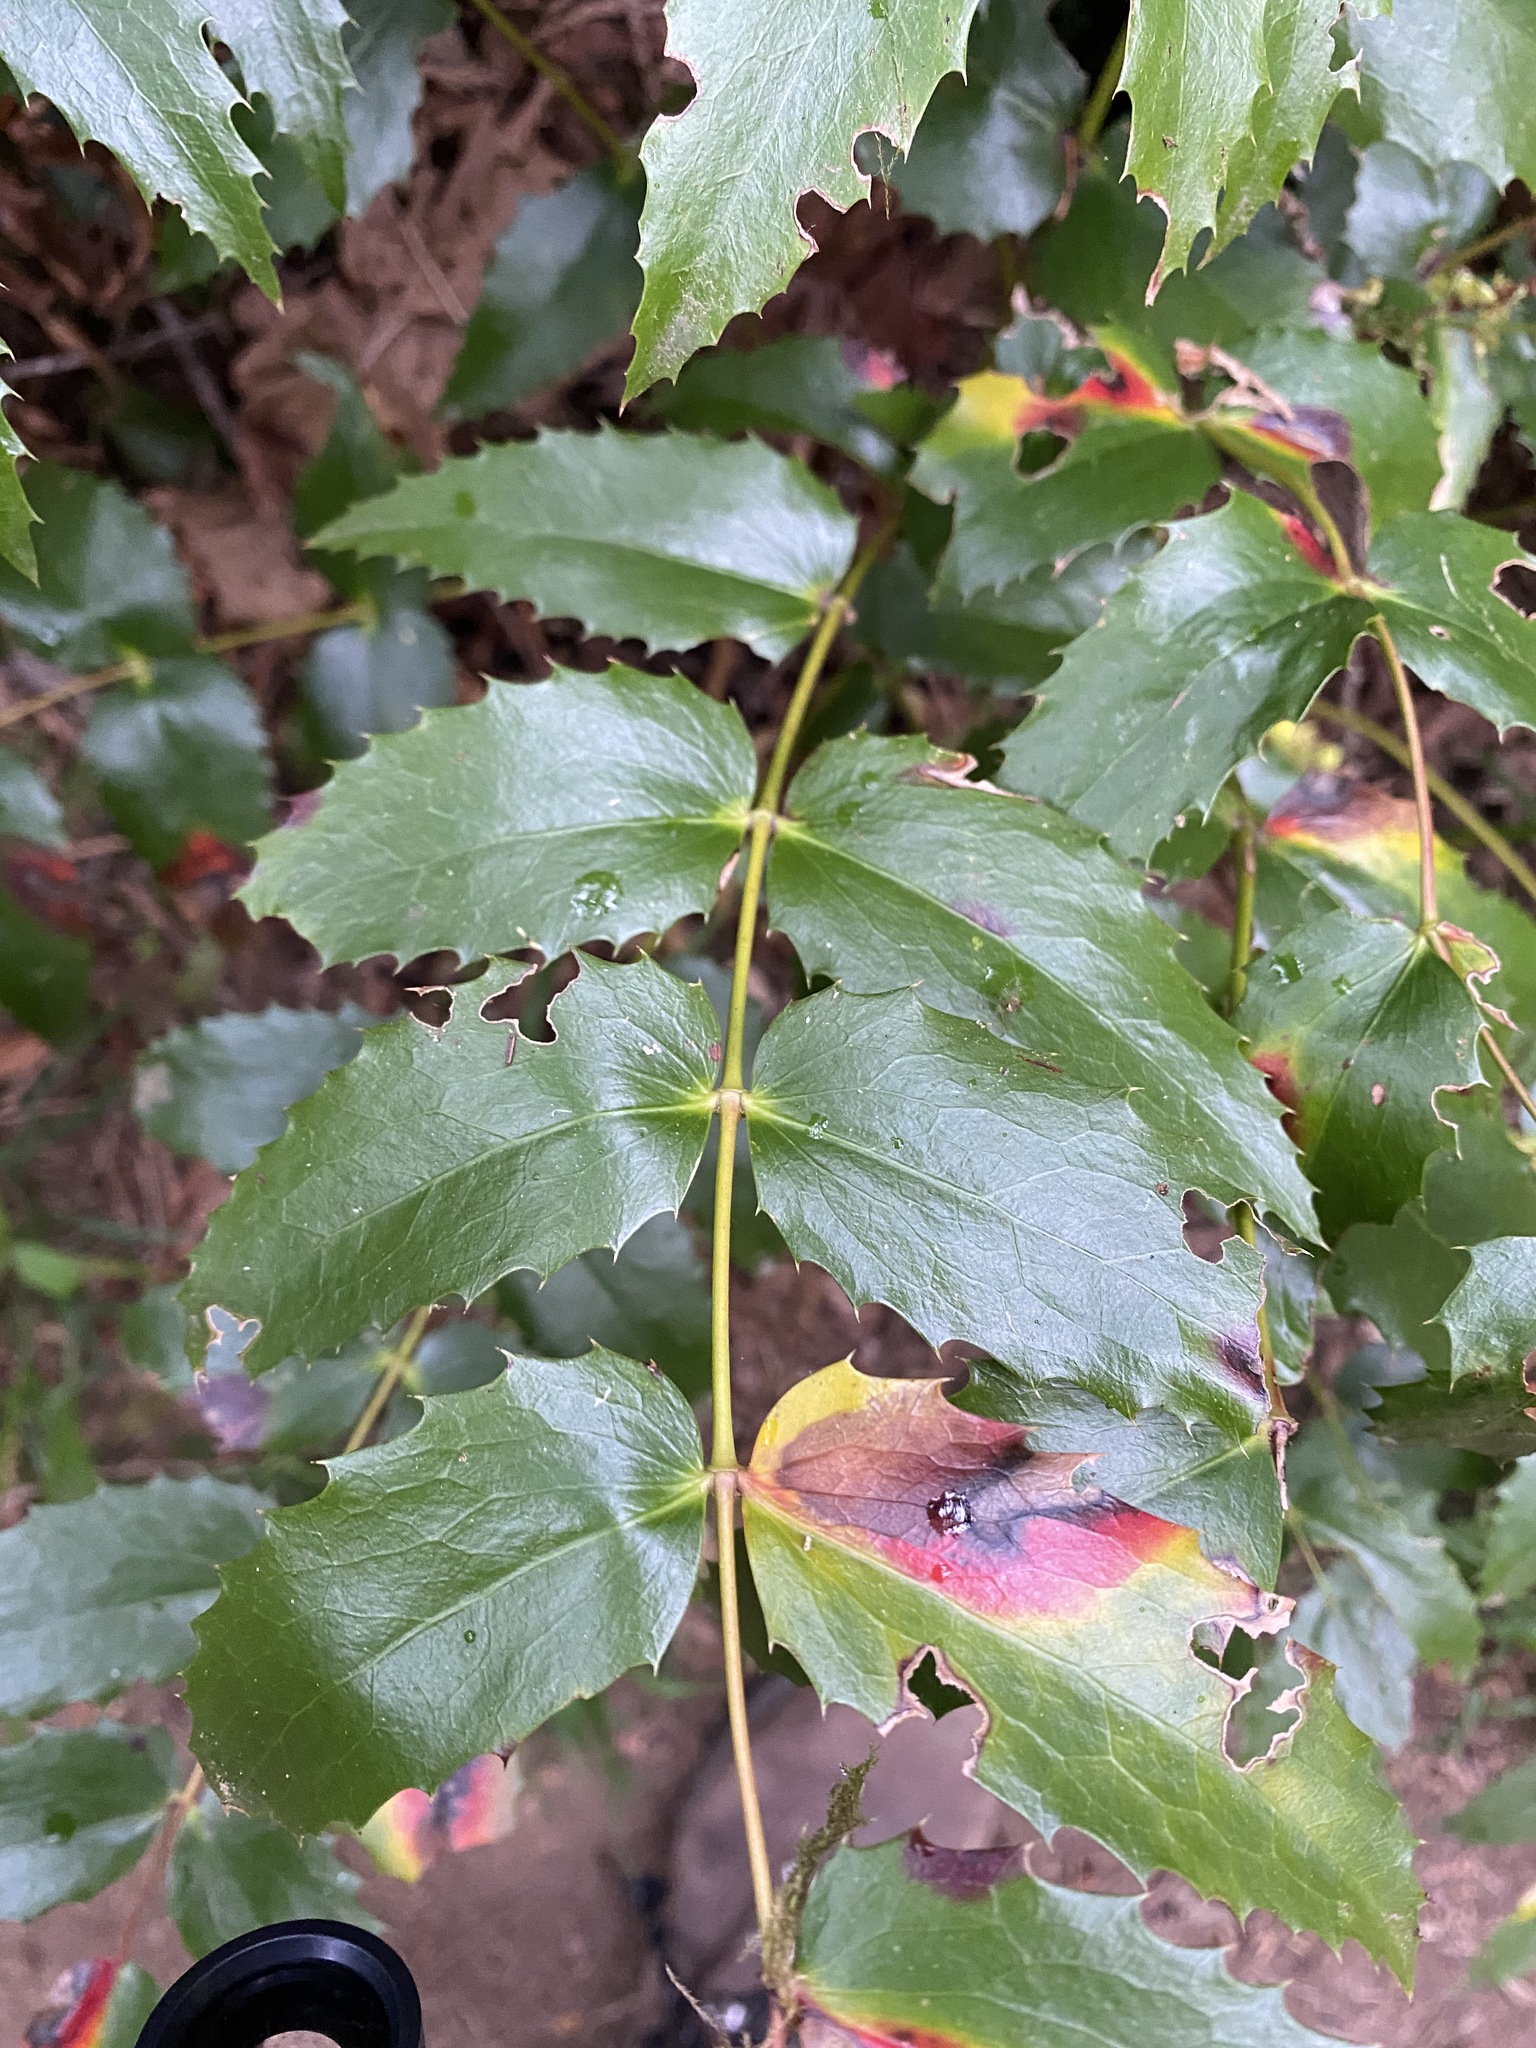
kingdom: Plantae
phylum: Tracheophyta
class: Magnoliopsida
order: Ranunculales
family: Berberidaceae
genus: Mahonia
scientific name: Mahonia nervosa
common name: Cascade oregon-grape
